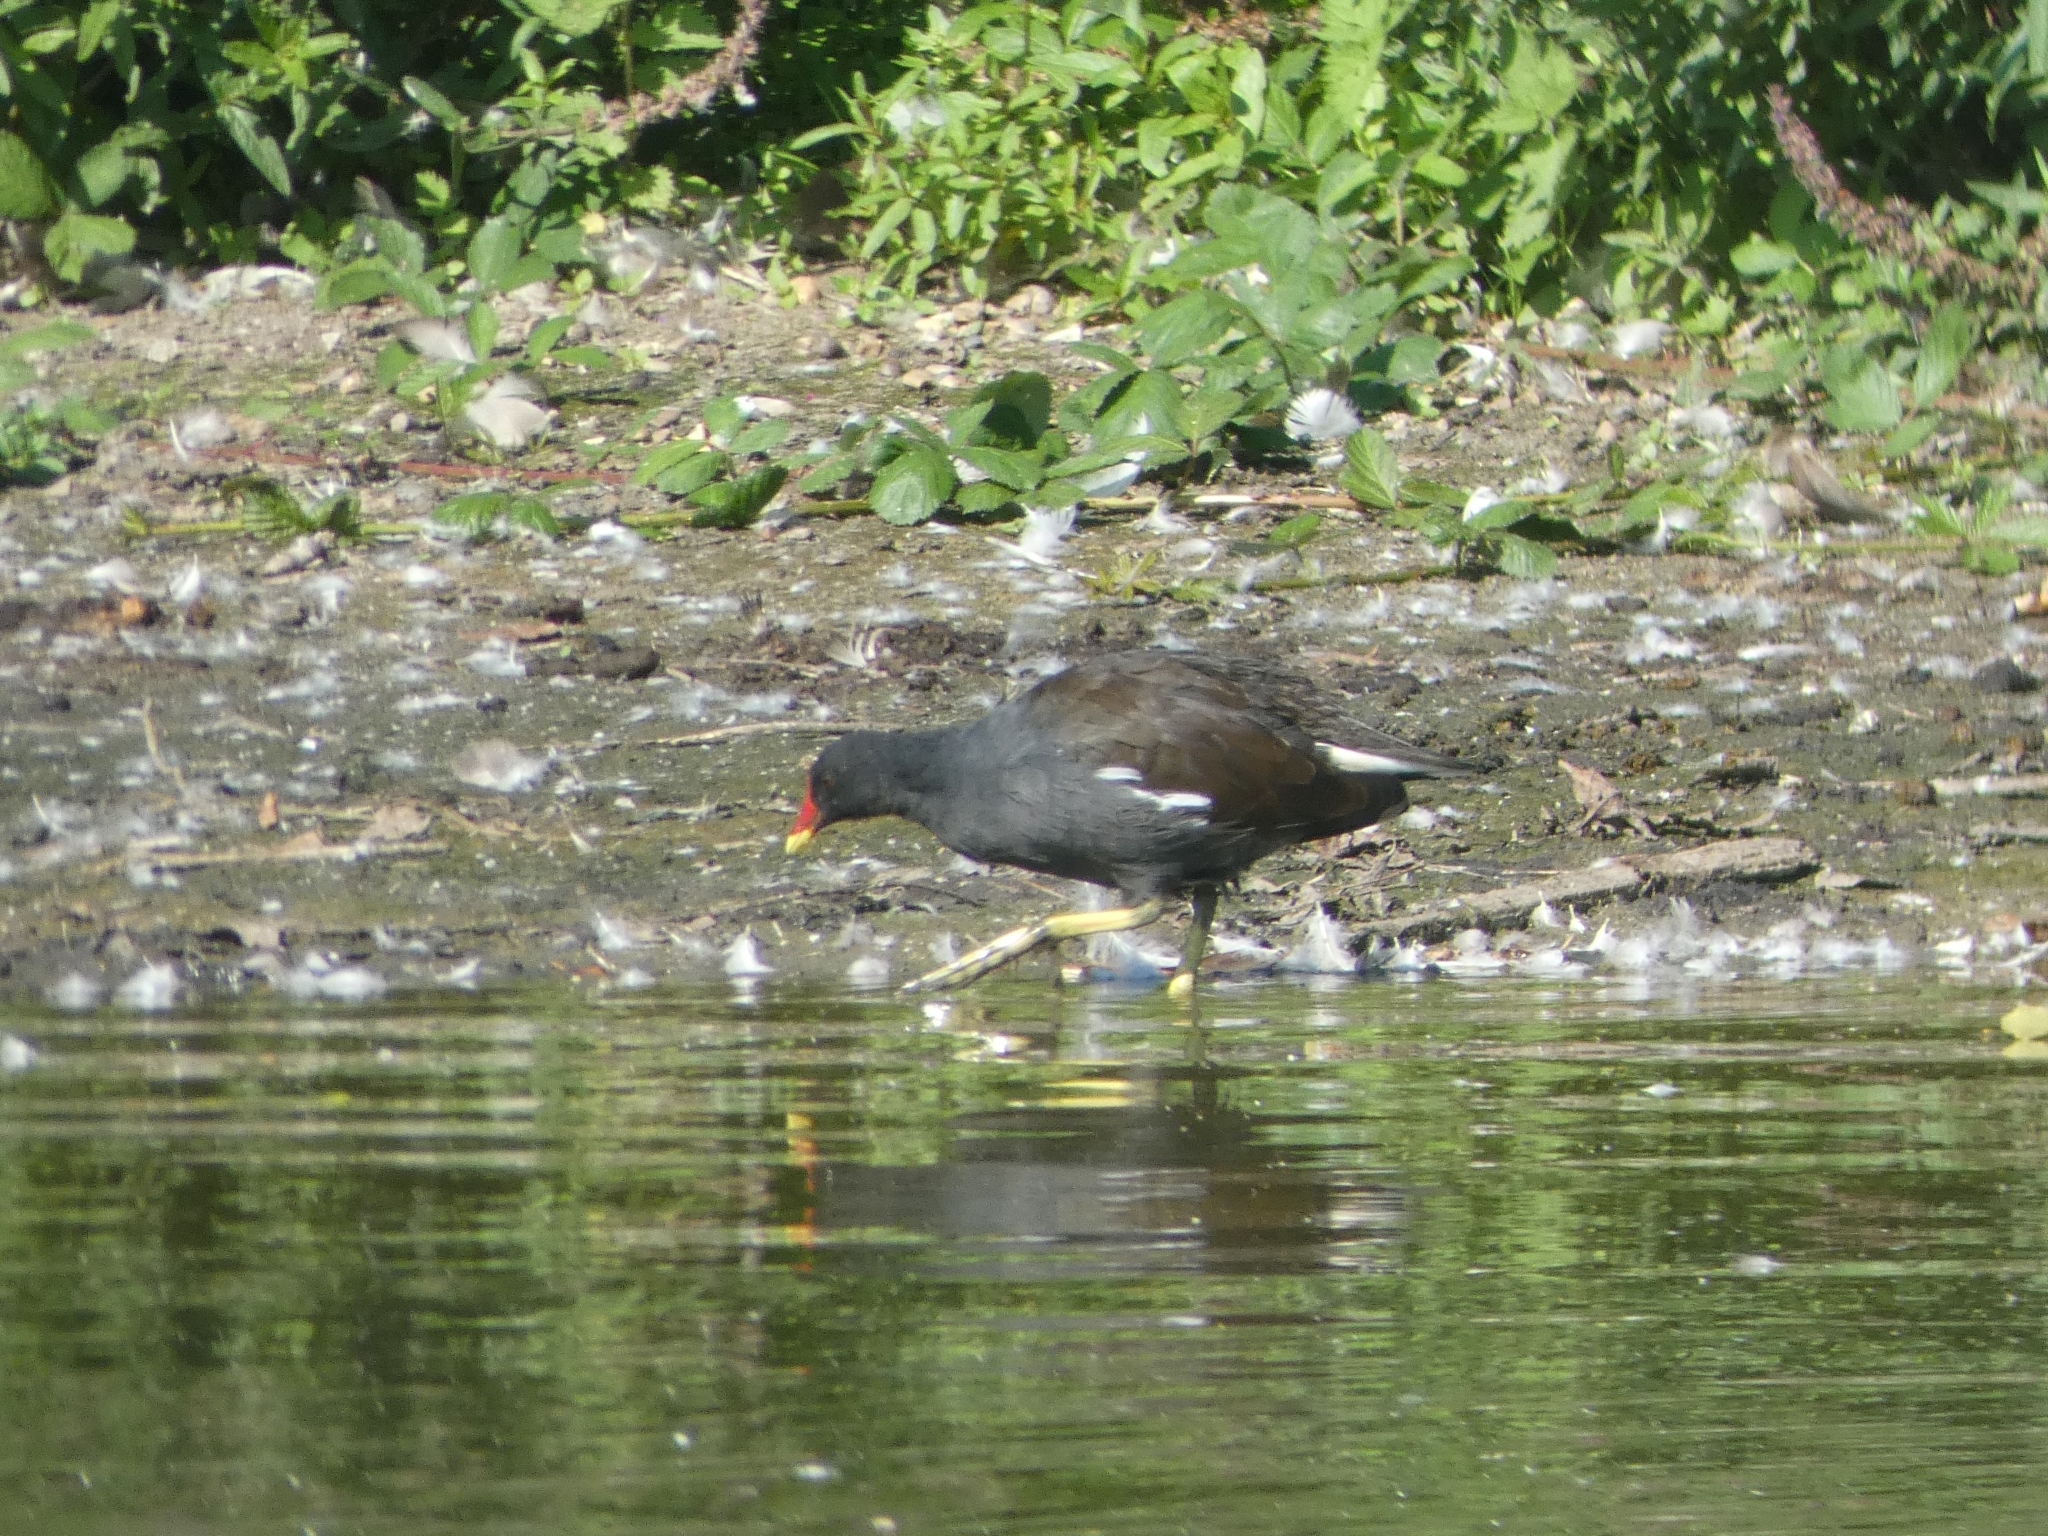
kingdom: Animalia
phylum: Chordata
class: Aves
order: Gruiformes
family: Rallidae
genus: Gallinula
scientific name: Gallinula chloropus
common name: Common moorhen
